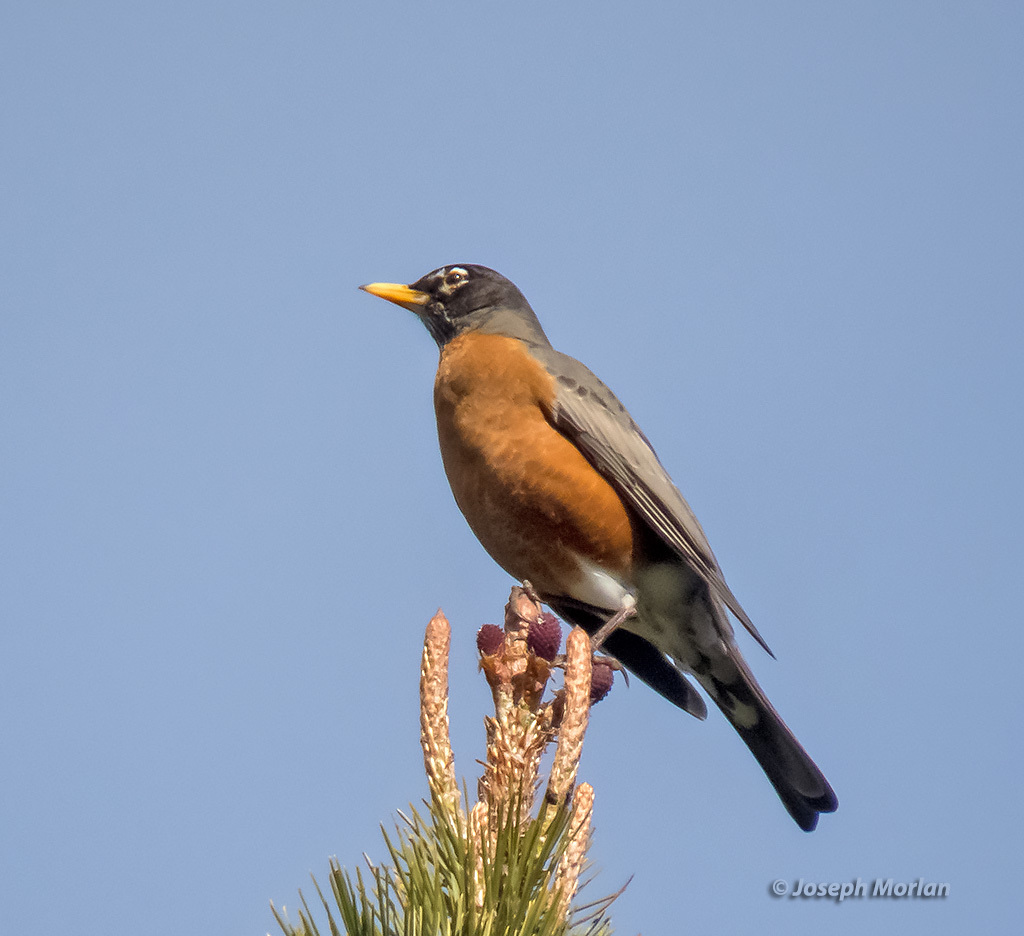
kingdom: Animalia
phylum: Chordata
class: Aves
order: Passeriformes
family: Turdidae
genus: Turdus
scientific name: Turdus migratorius
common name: American robin
